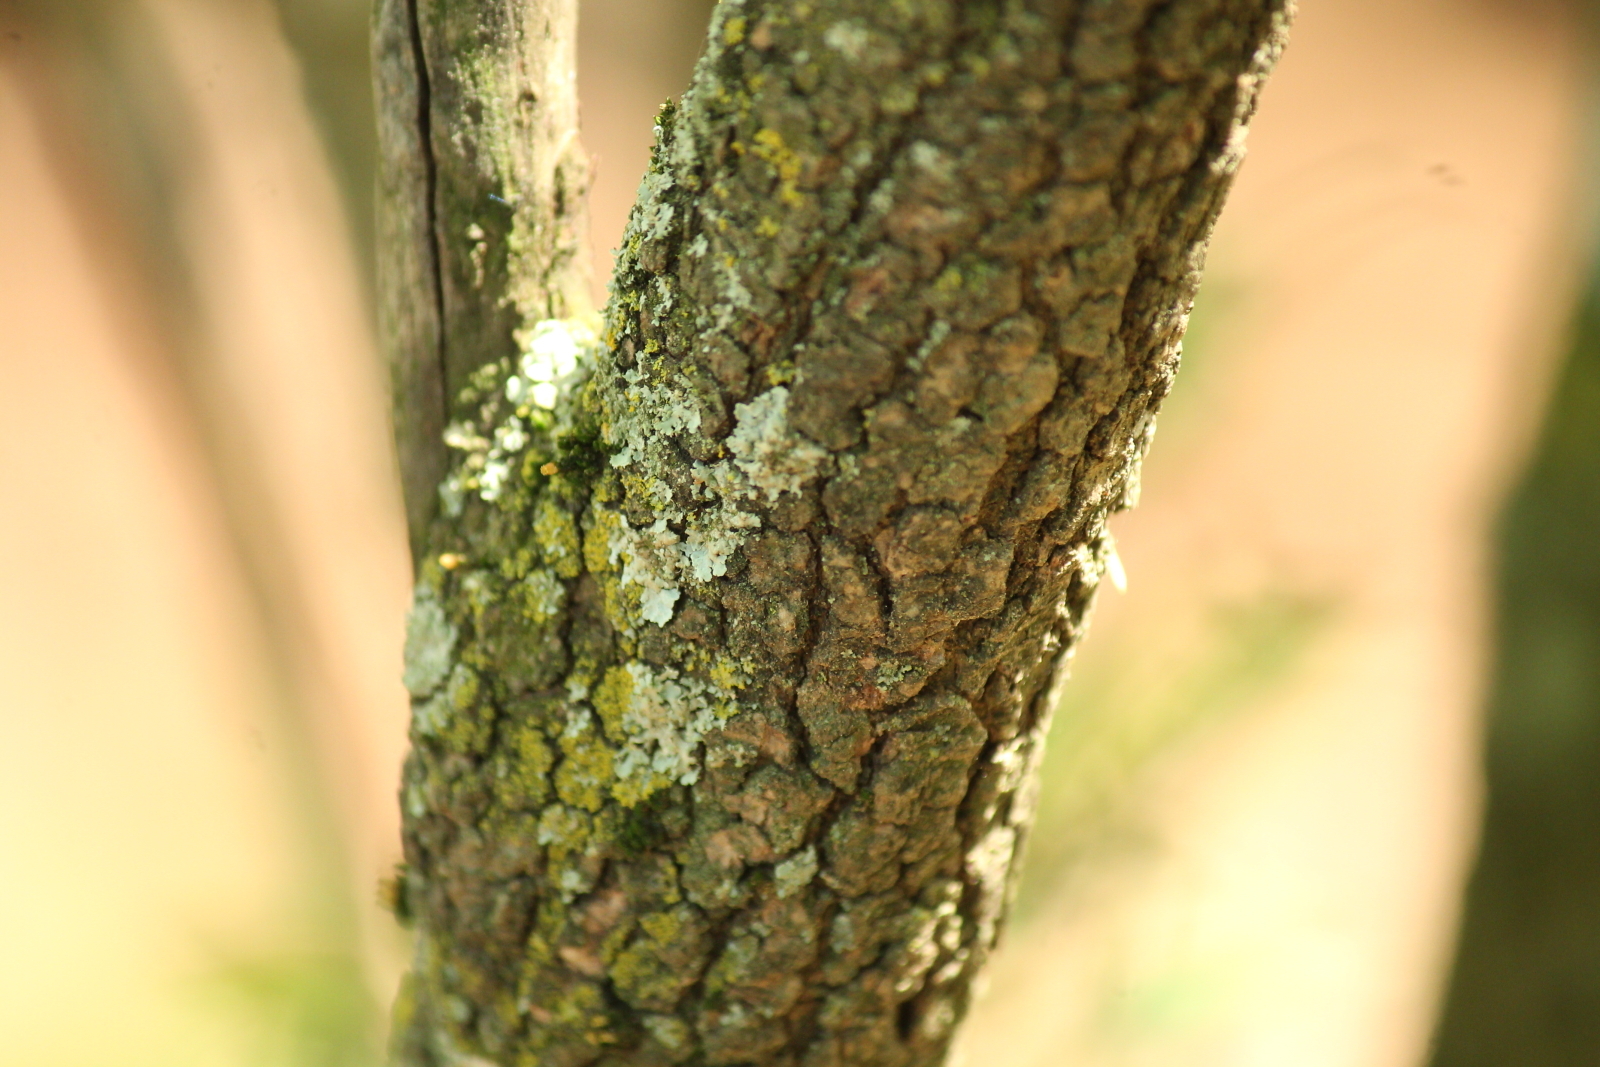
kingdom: Plantae
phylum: Tracheophyta
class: Magnoliopsida
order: Dipsacales
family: Viburnaceae
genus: Viburnum
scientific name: Viburnum prunifolium
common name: Black haw
